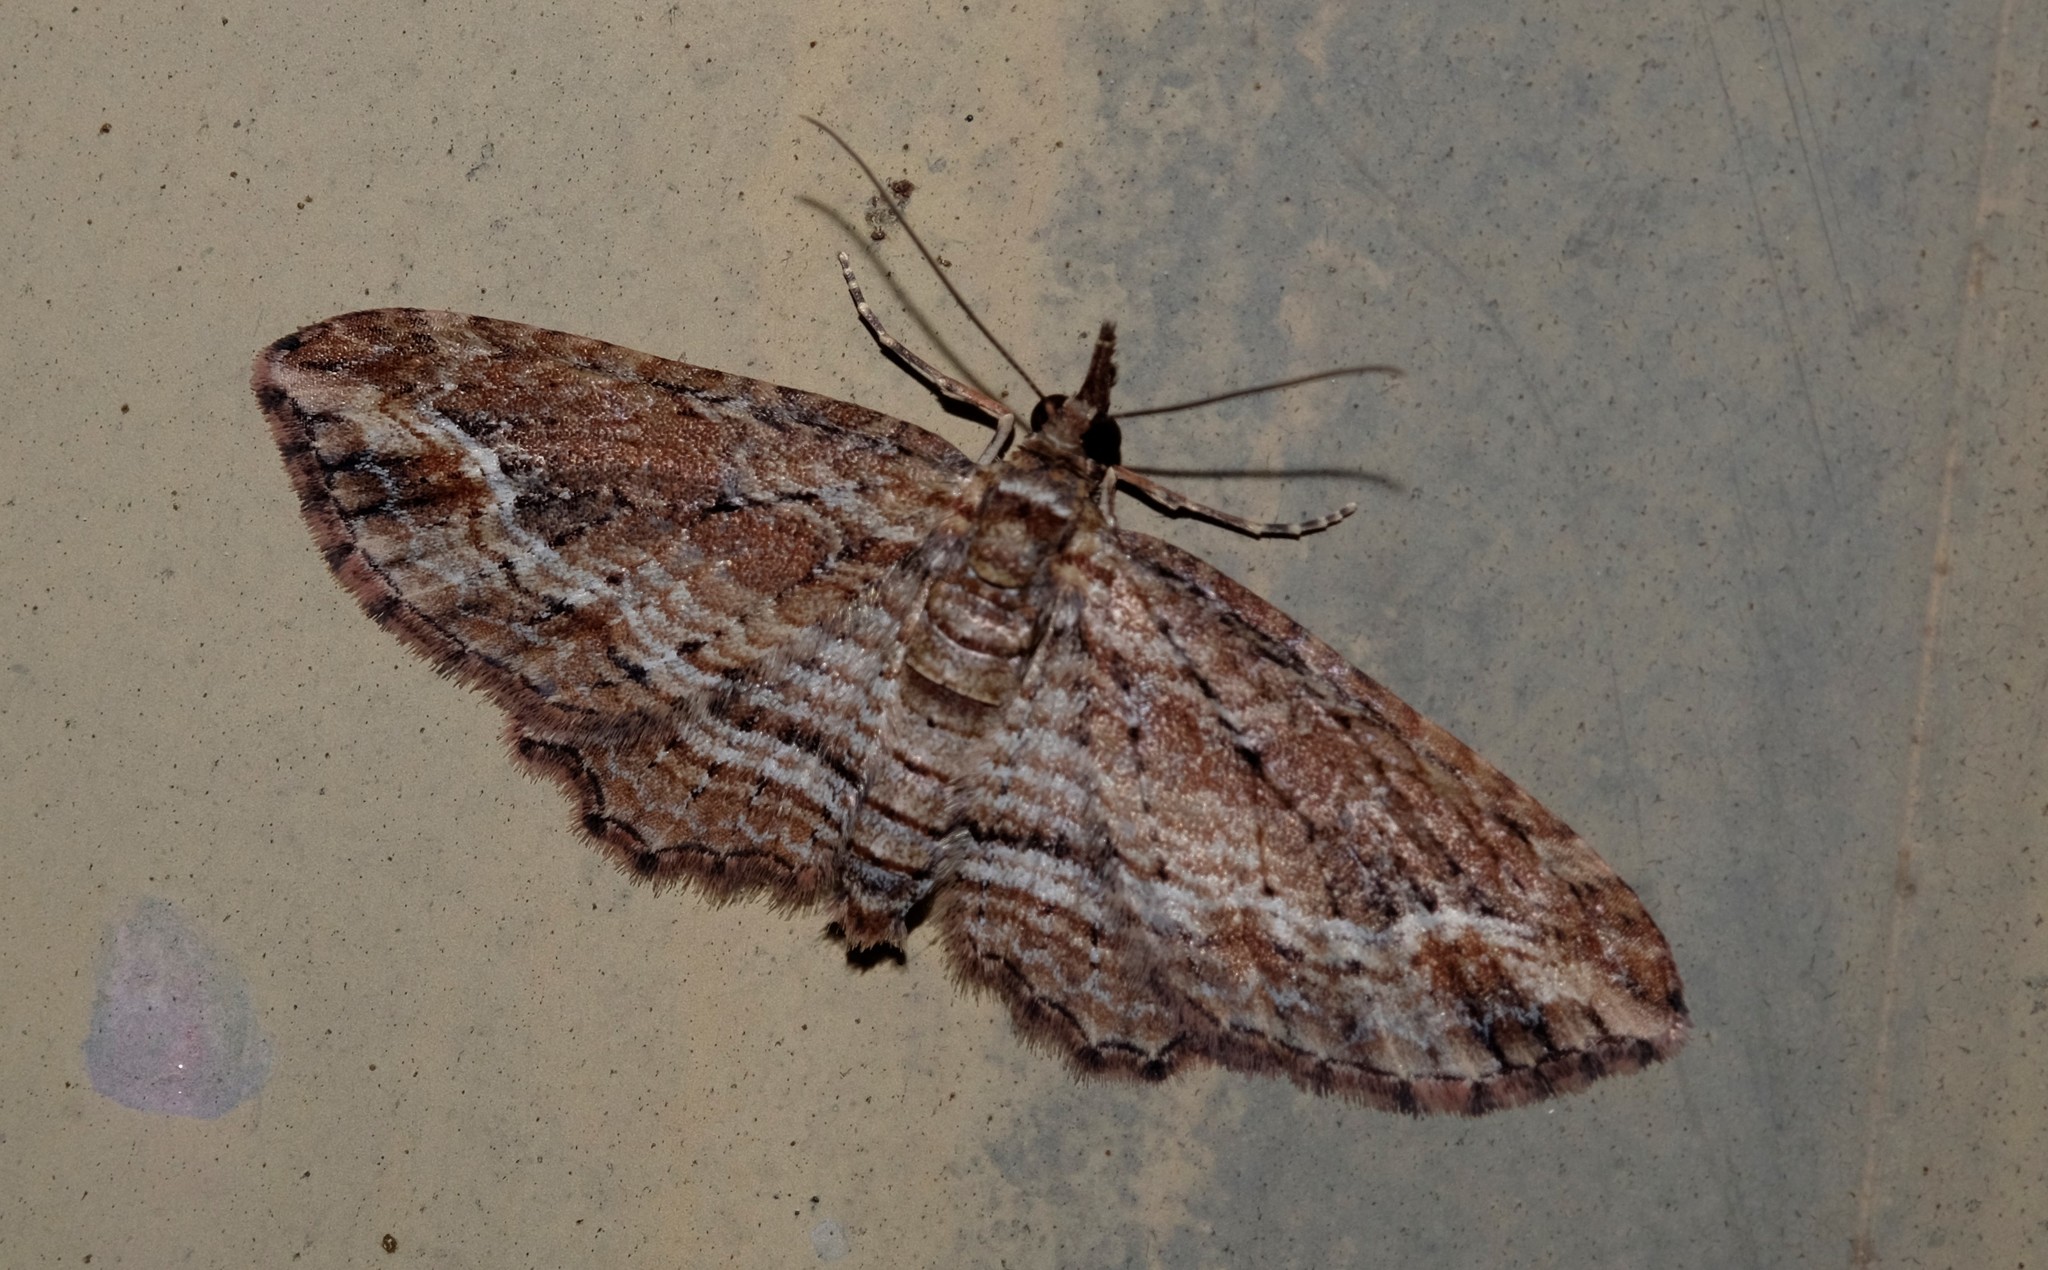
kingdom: Animalia
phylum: Arthropoda
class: Insecta
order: Lepidoptera
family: Geometridae
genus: Chloroclystis
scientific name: Chloroclystis filata
